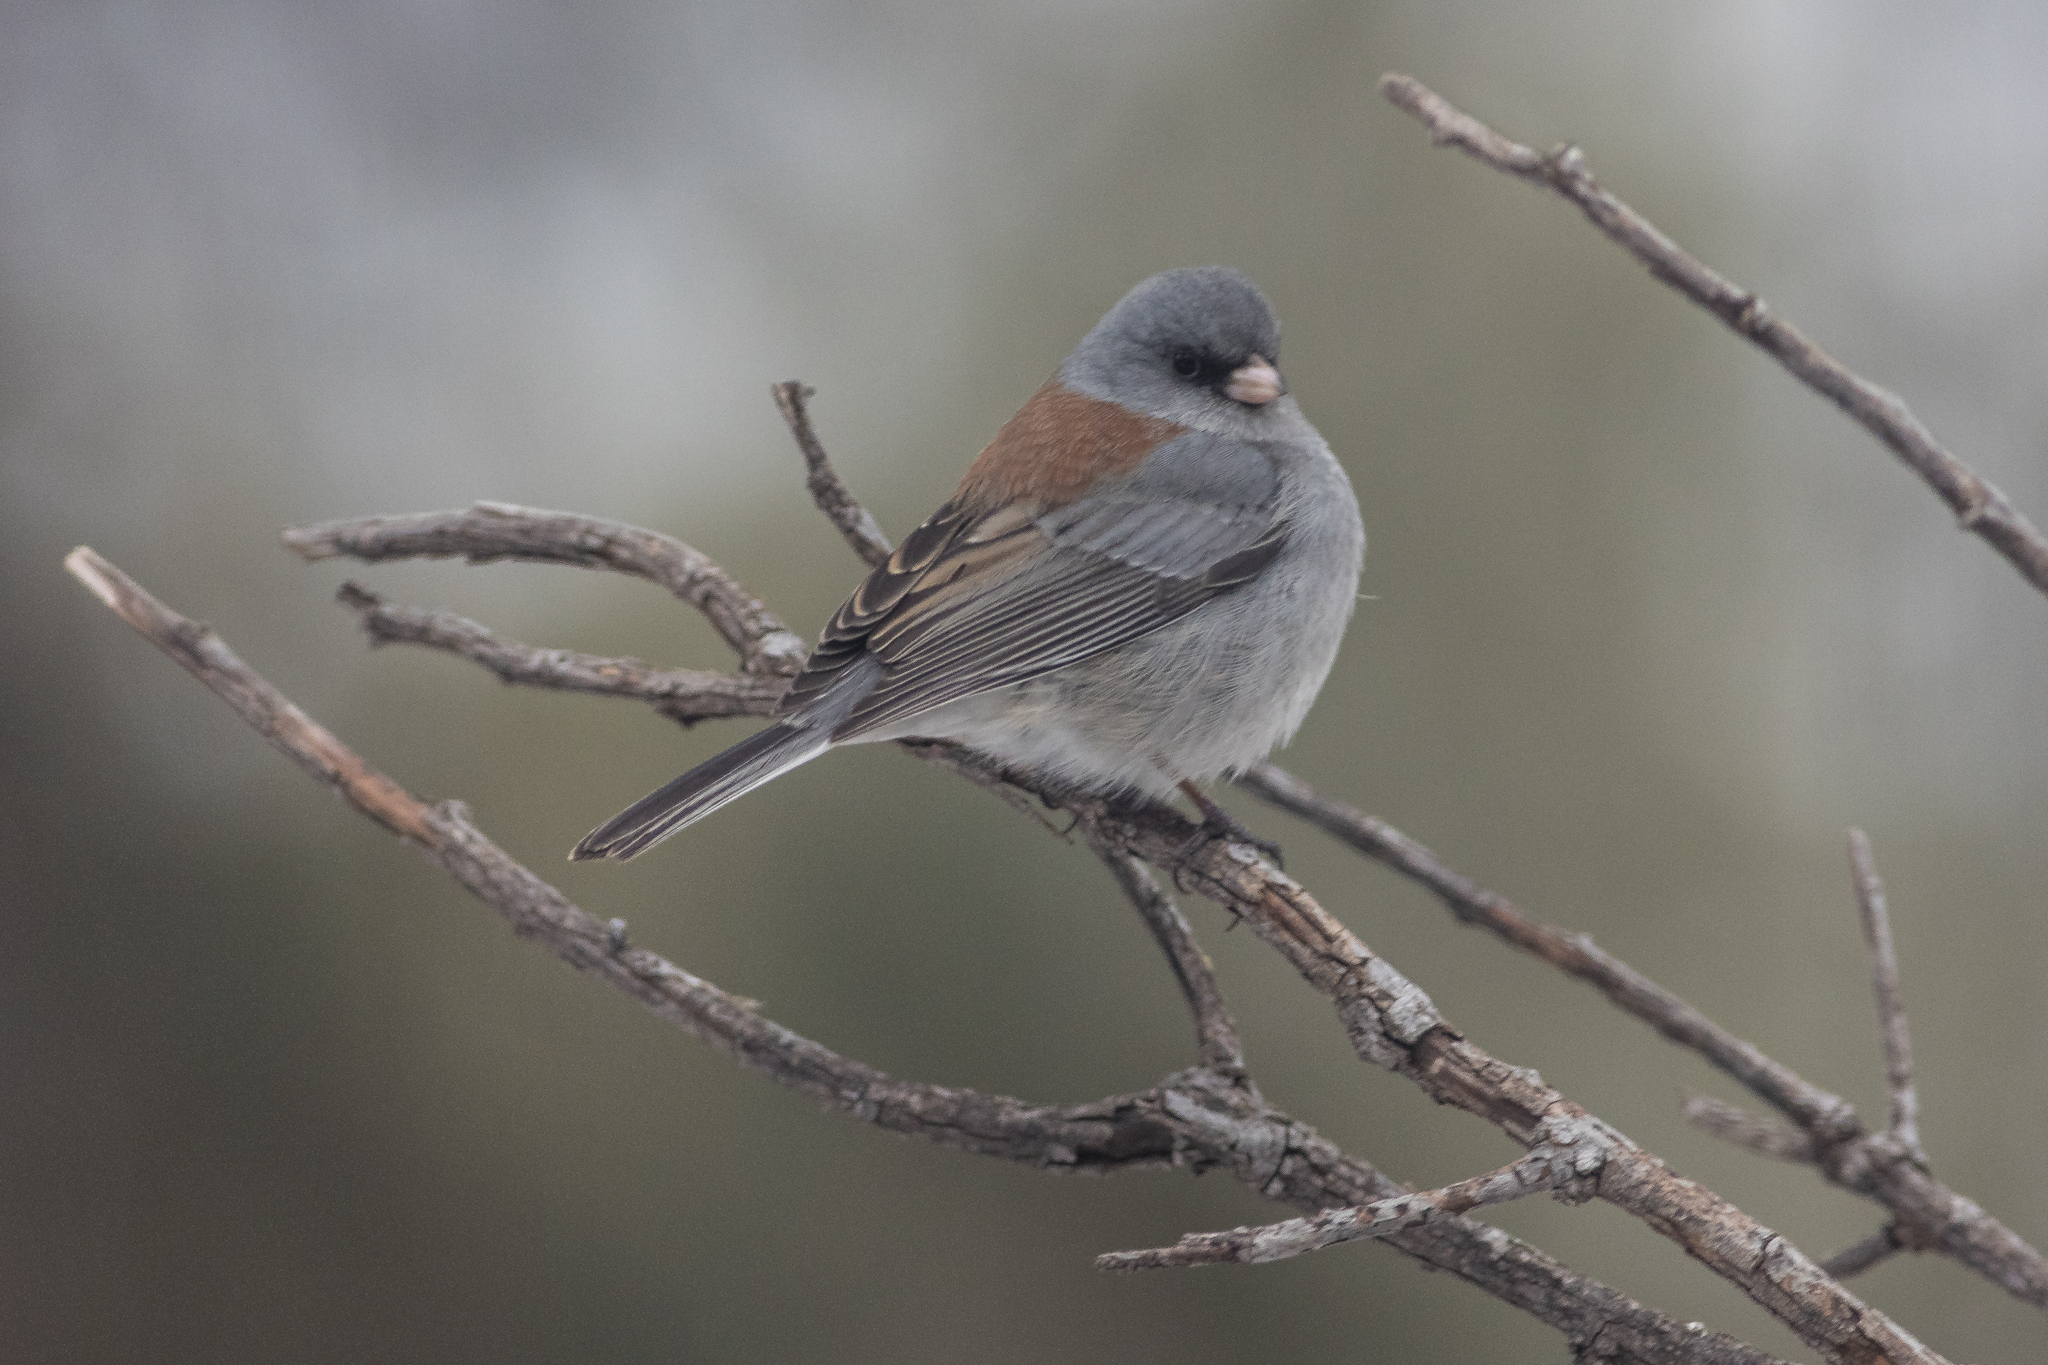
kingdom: Animalia
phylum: Chordata
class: Aves
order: Passeriformes
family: Passerellidae
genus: Junco
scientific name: Junco hyemalis
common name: Dark-eyed junco
